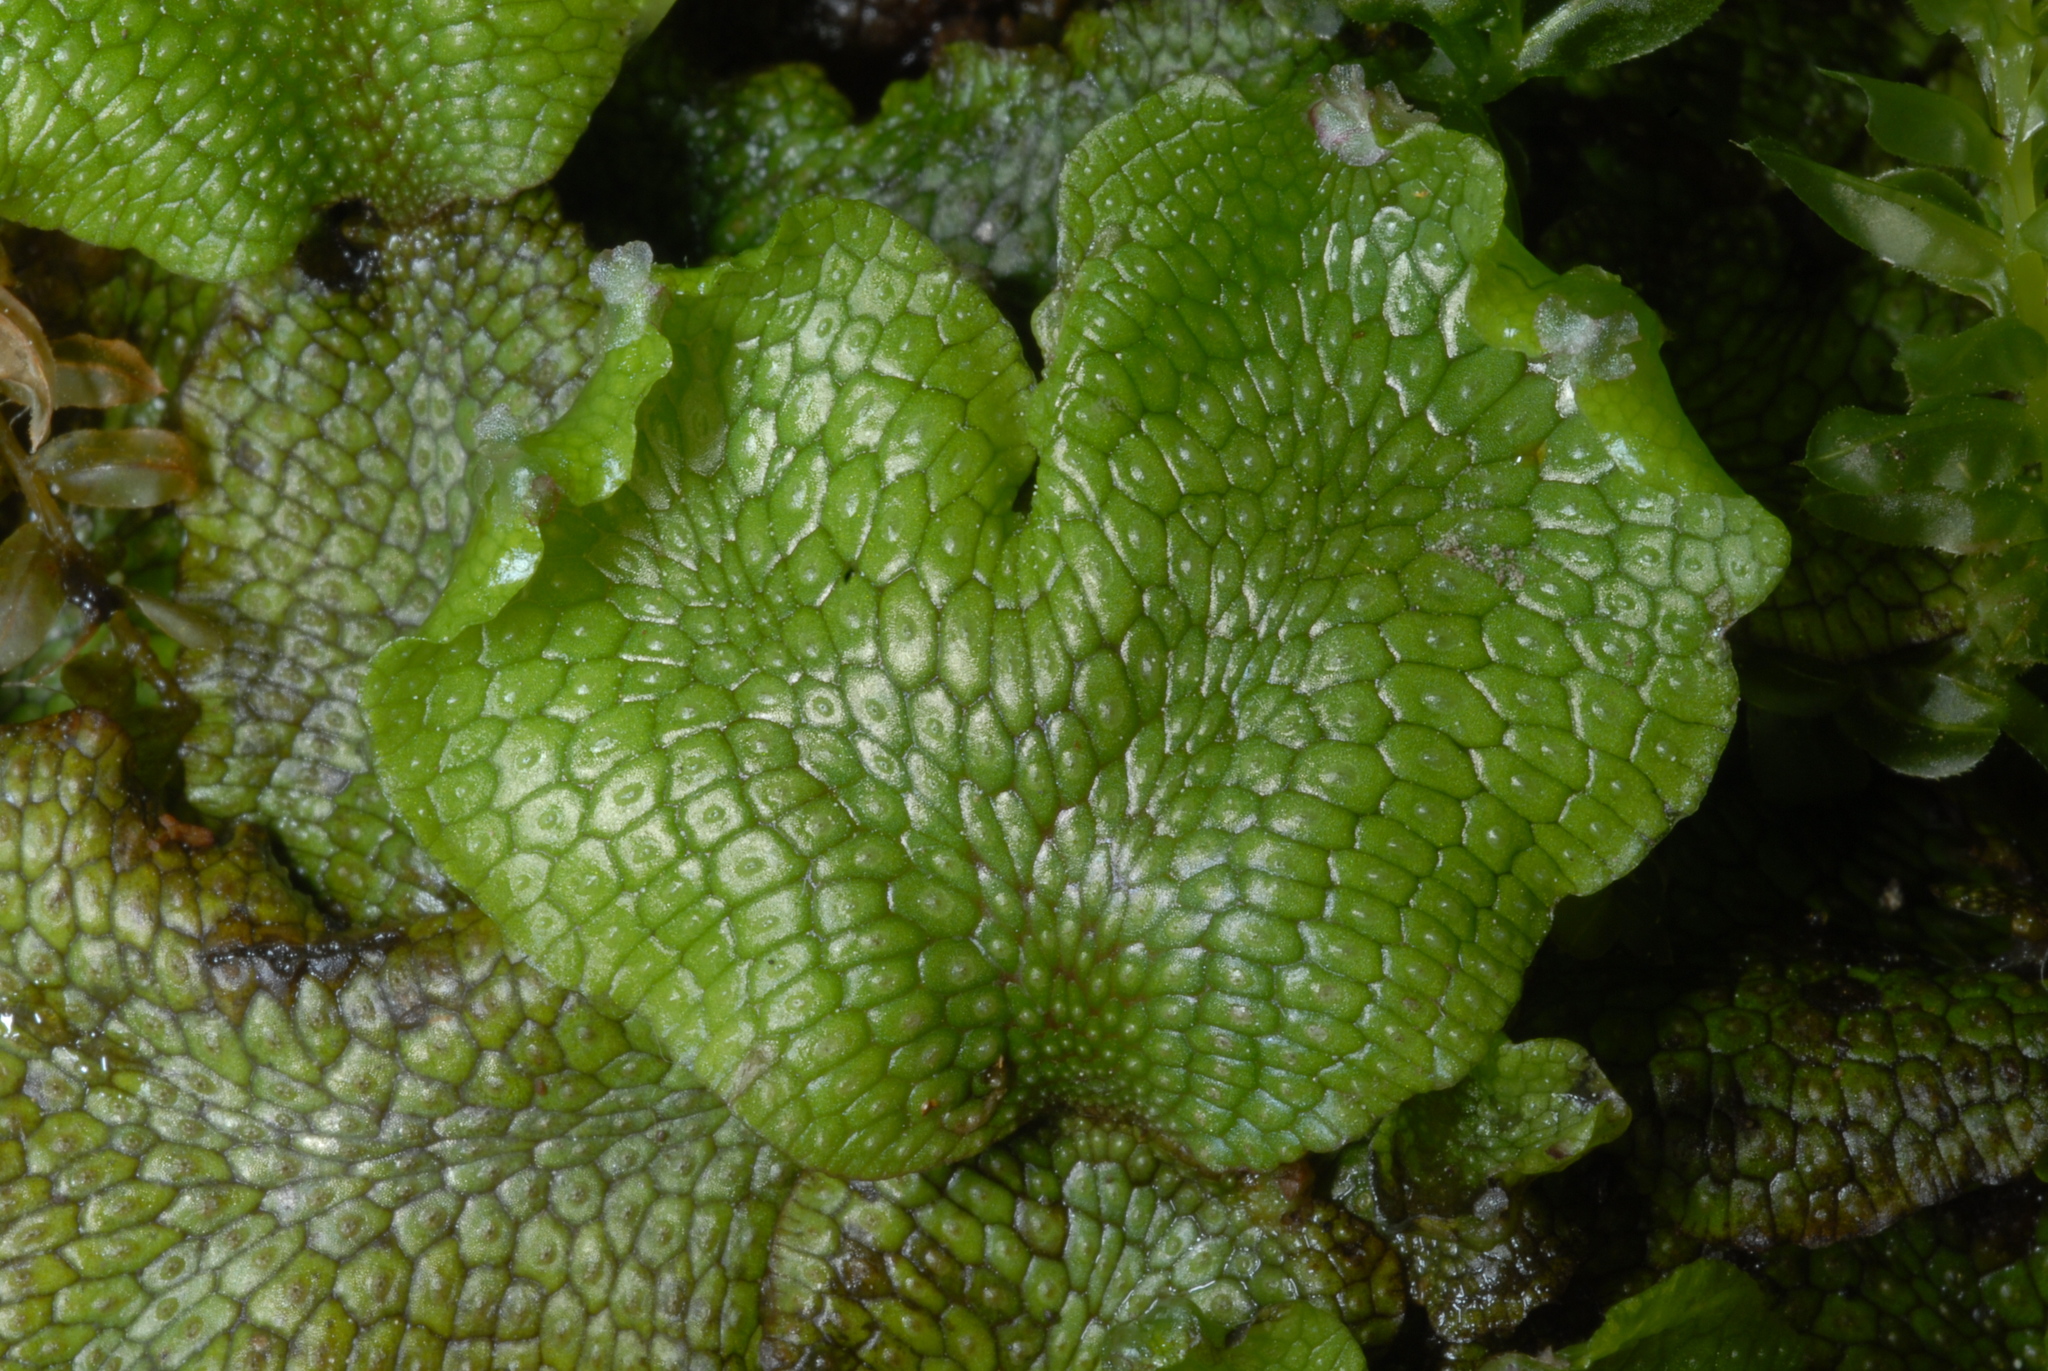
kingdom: Plantae
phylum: Marchantiophyta
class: Marchantiopsida
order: Marchantiales
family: Conocephalaceae
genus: Conocephalum
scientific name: Conocephalum salebrosum
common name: Cat-tongue liverwort
